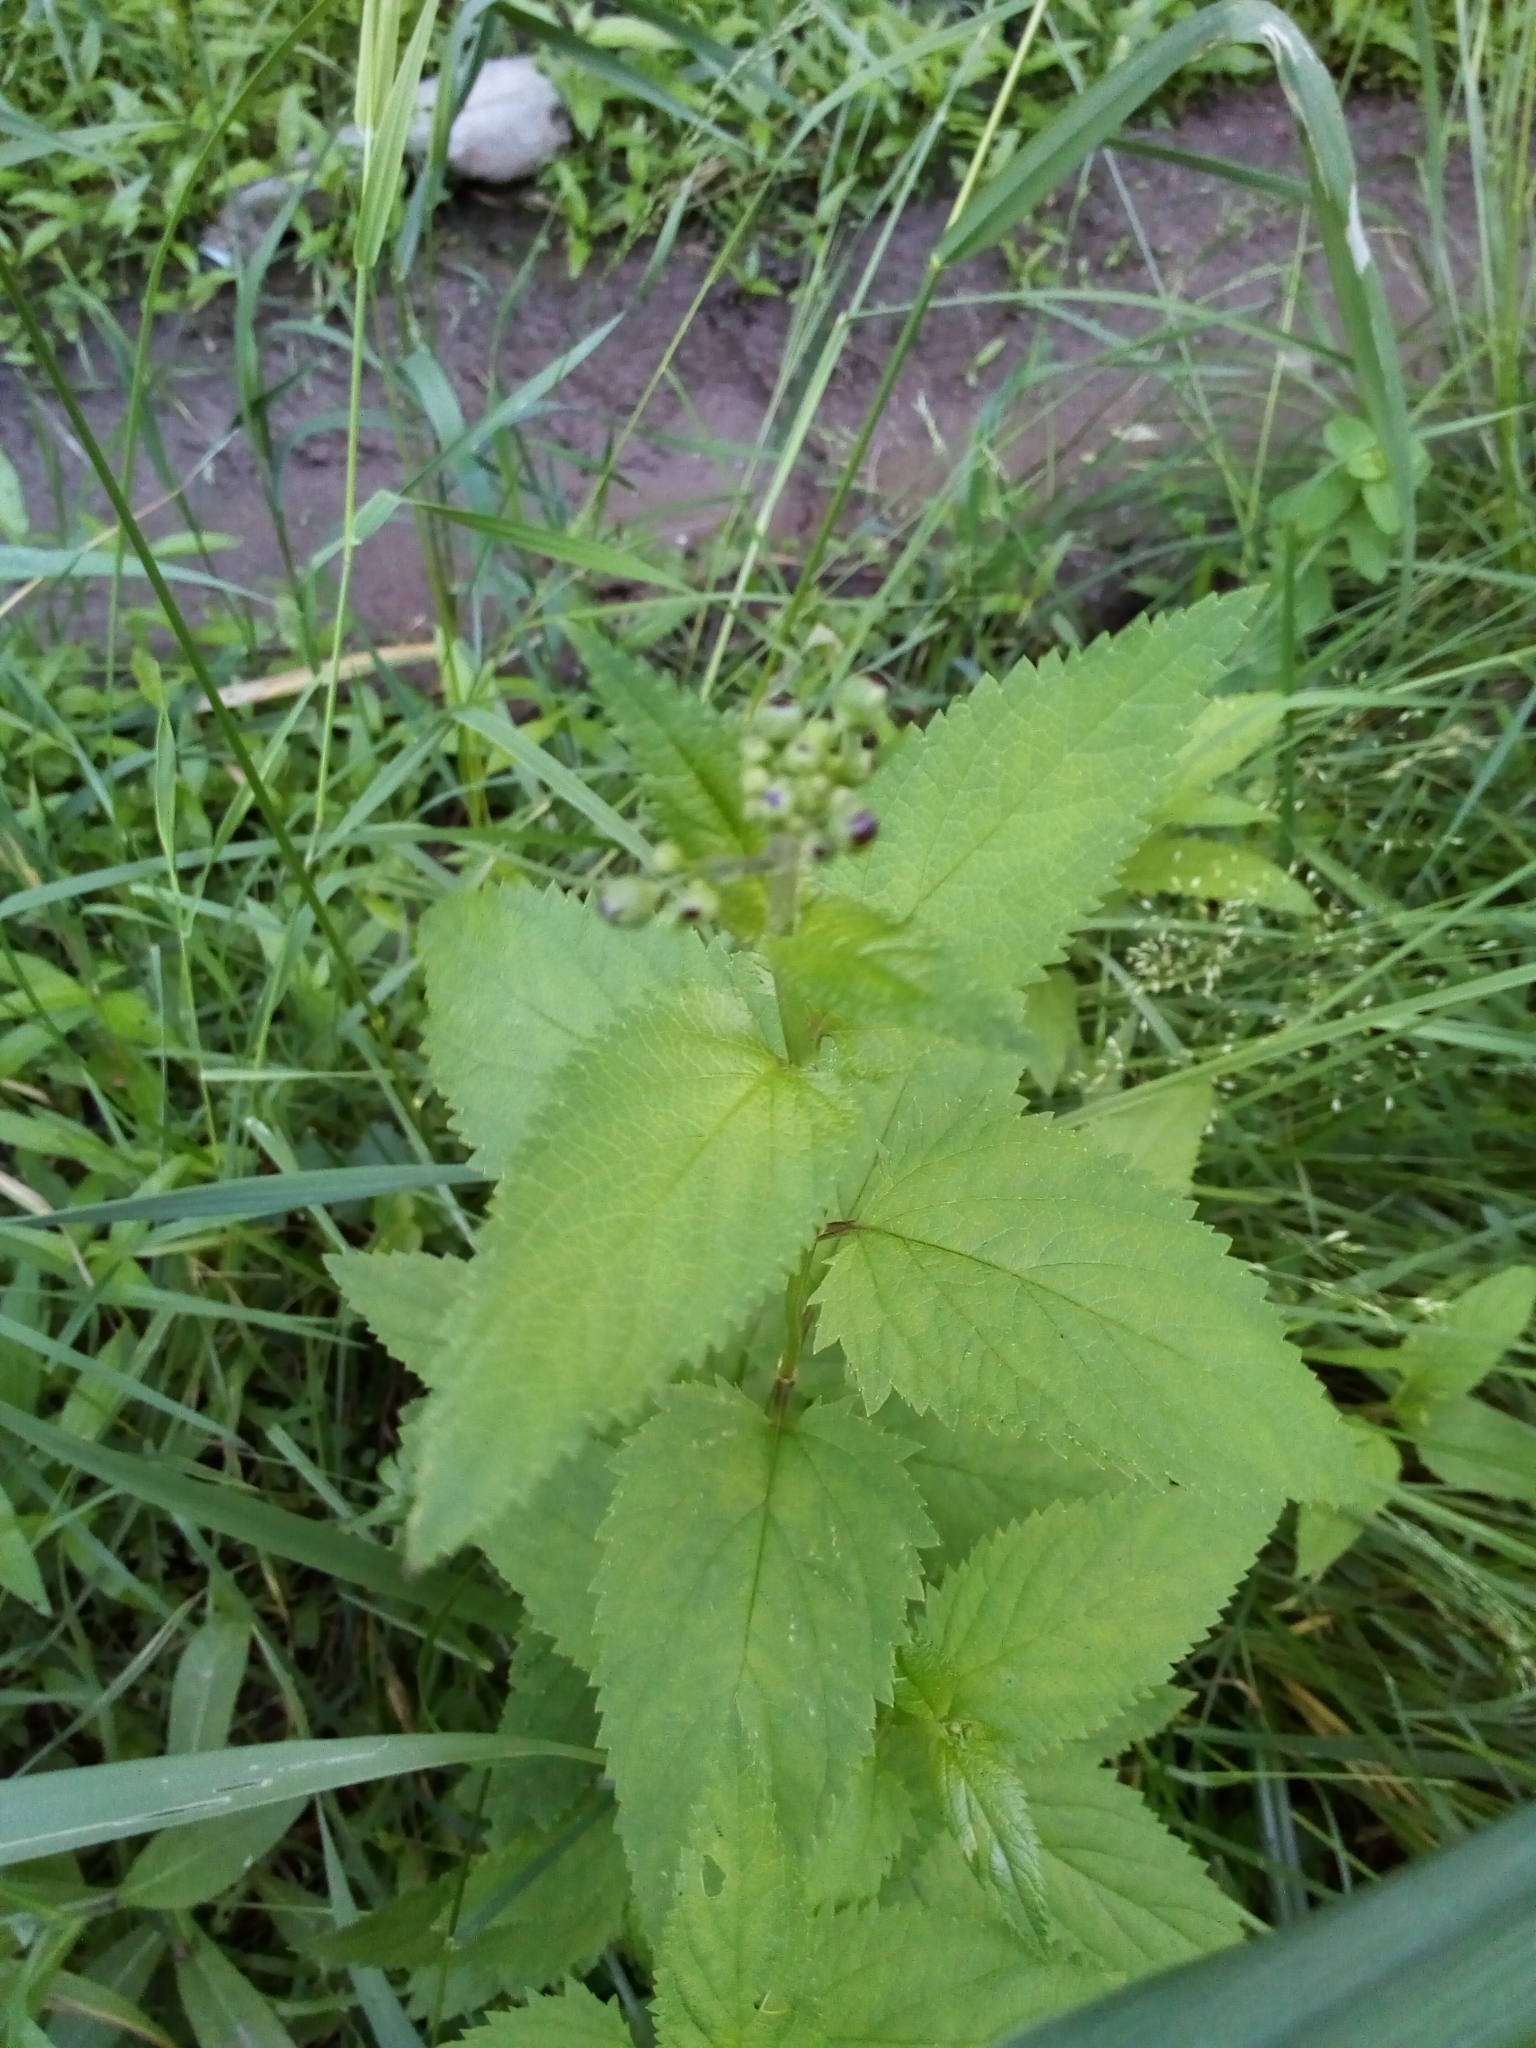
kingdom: Plantae
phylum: Tracheophyta
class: Magnoliopsida
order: Lamiales
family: Scrophulariaceae
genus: Scrophularia
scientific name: Scrophularia nodosa
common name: Common figwort
